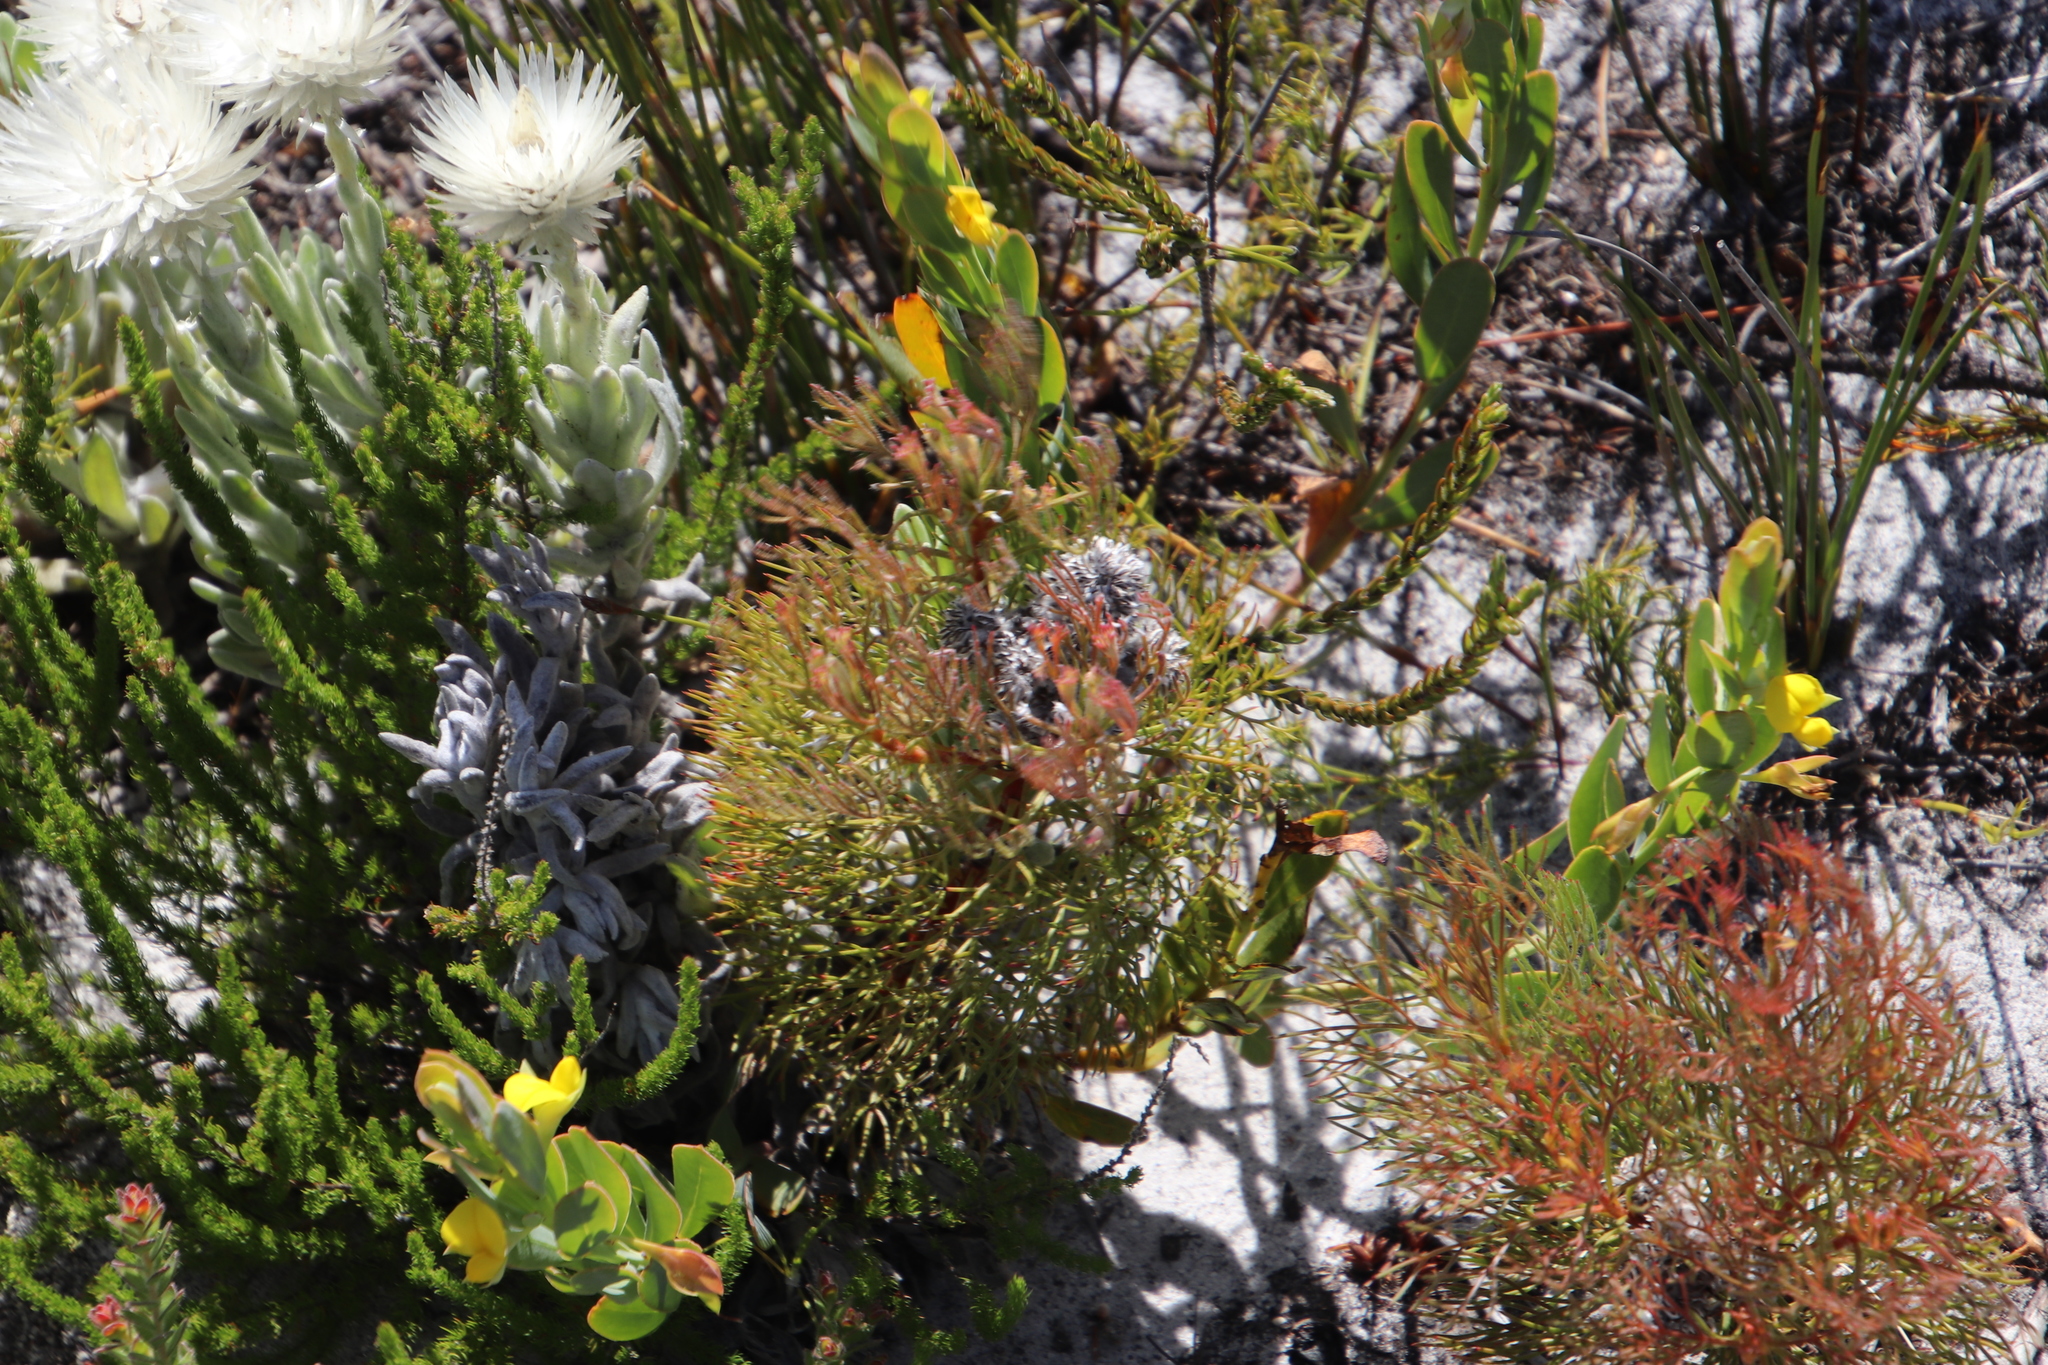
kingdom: Plantae
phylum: Tracheophyta
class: Magnoliopsida
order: Proteales
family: Proteaceae
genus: Serruria
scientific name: Serruria glomerata
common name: Cluster spiderhead
